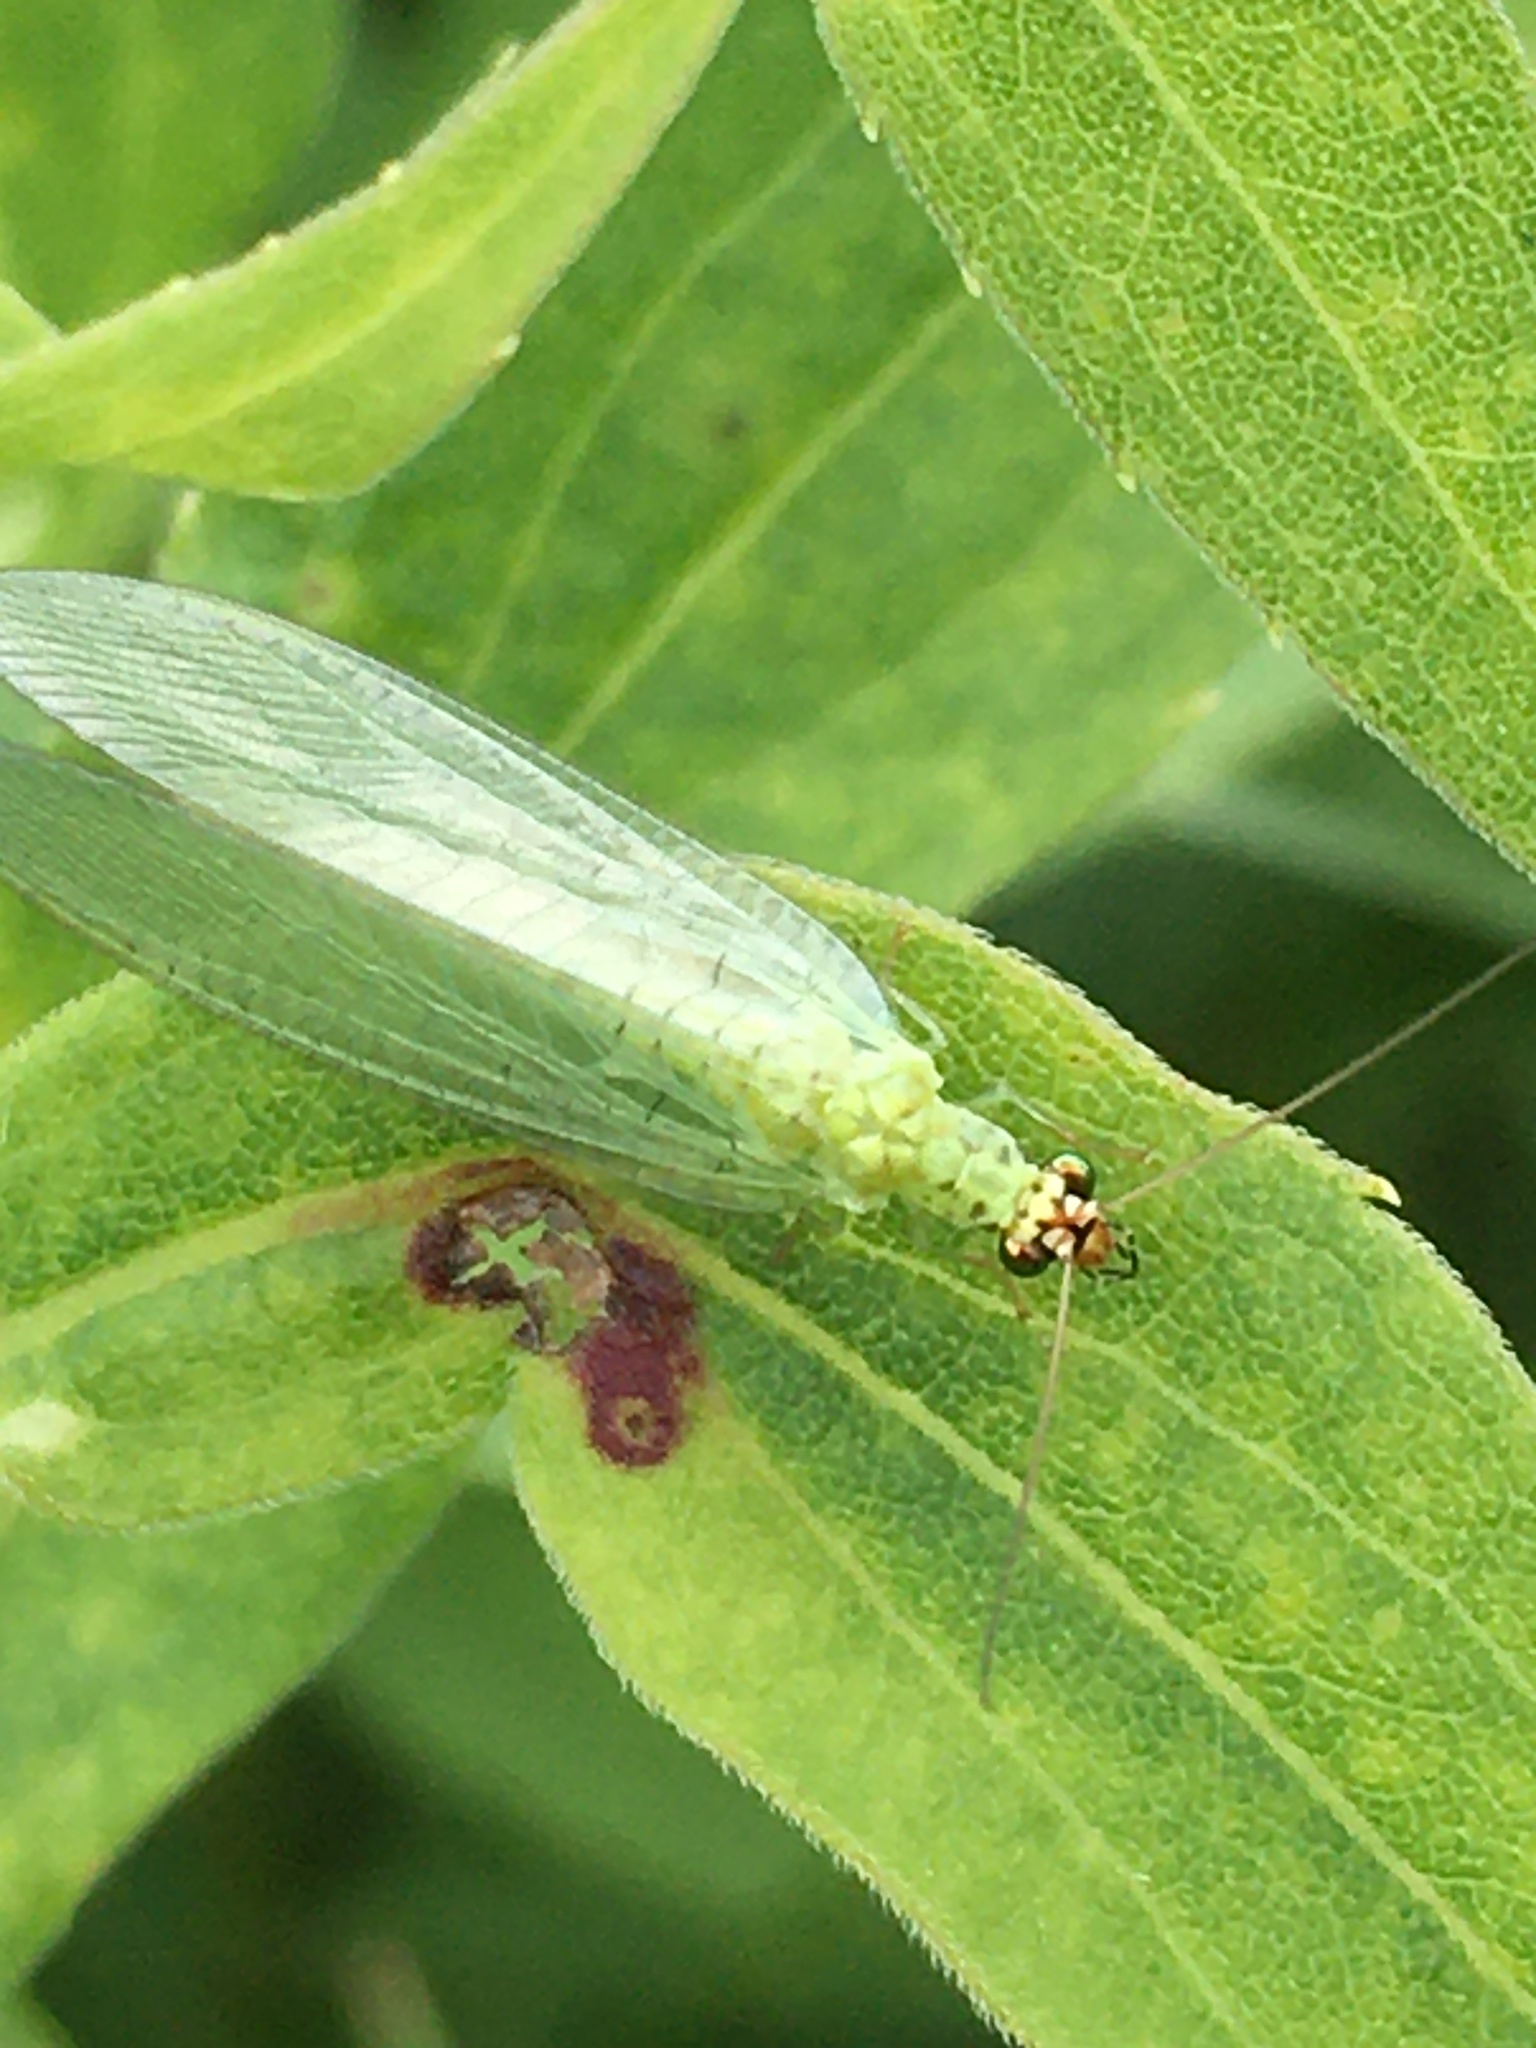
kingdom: Animalia
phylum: Arthropoda
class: Insecta
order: Neuroptera
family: Chrysopidae
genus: Chrysopa
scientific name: Chrysopa oculata
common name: Golden-eyed lacewing
